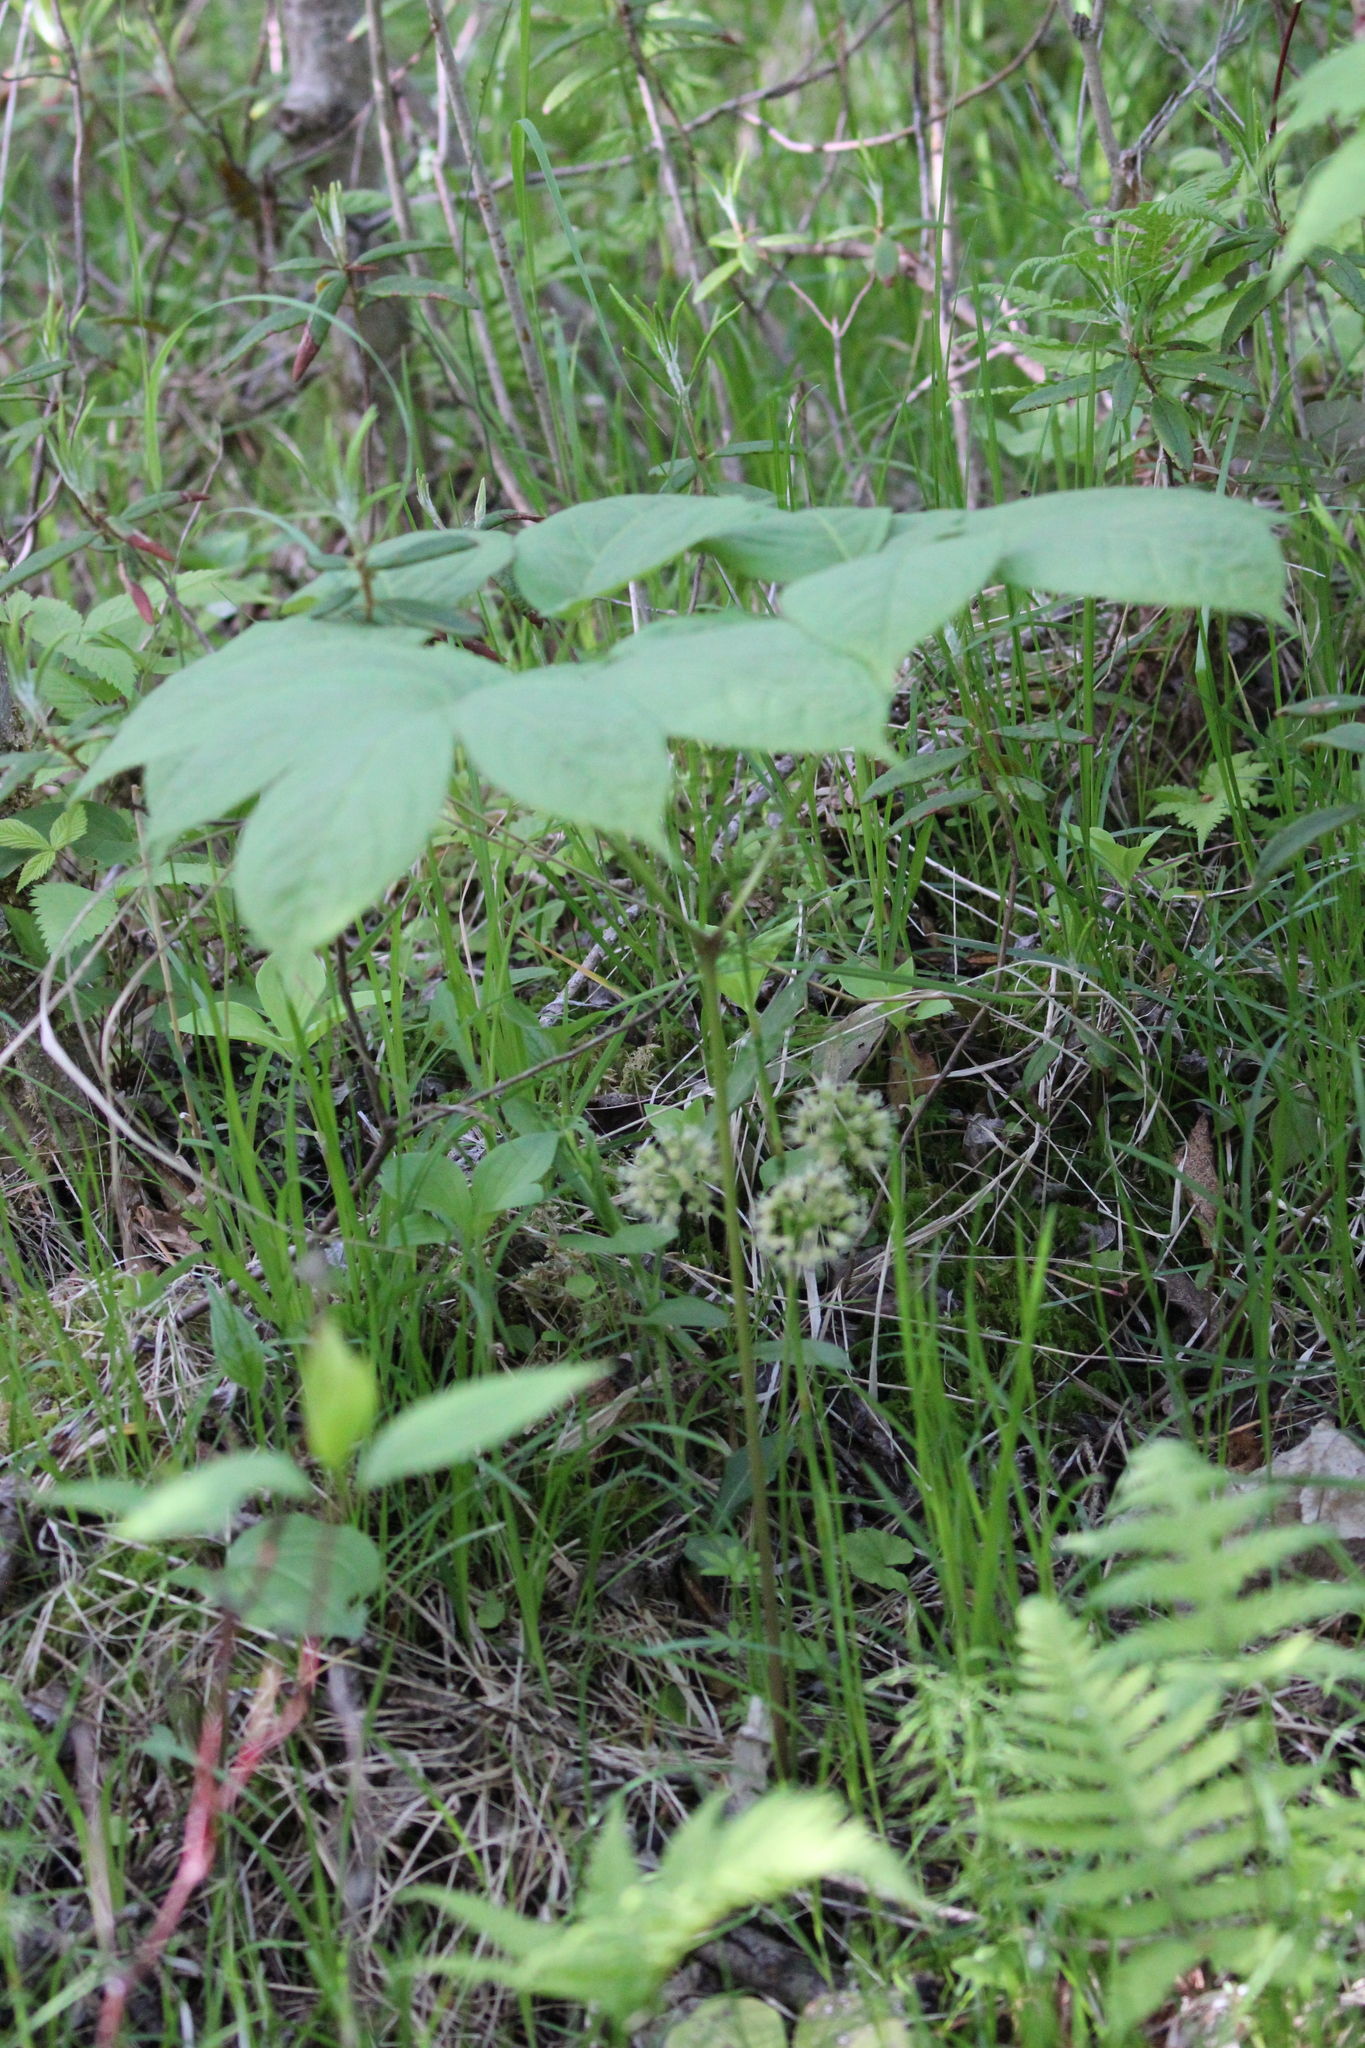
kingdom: Plantae
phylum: Tracheophyta
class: Magnoliopsida
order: Apiales
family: Araliaceae
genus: Aralia
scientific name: Aralia nudicaulis
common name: Wild sarsaparilla
